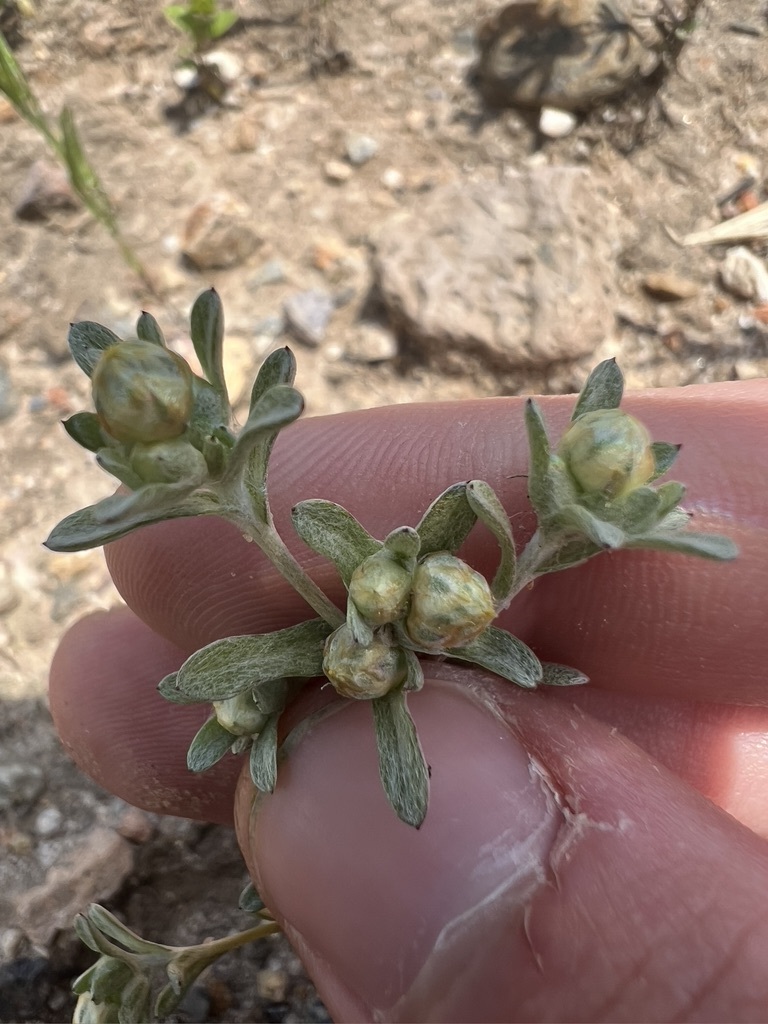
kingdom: Plantae
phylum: Tracheophyta
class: Magnoliopsida
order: Asterales
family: Asteraceae
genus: Stylocline
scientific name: Stylocline gnaphaloides
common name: Everlasting nest-straw
